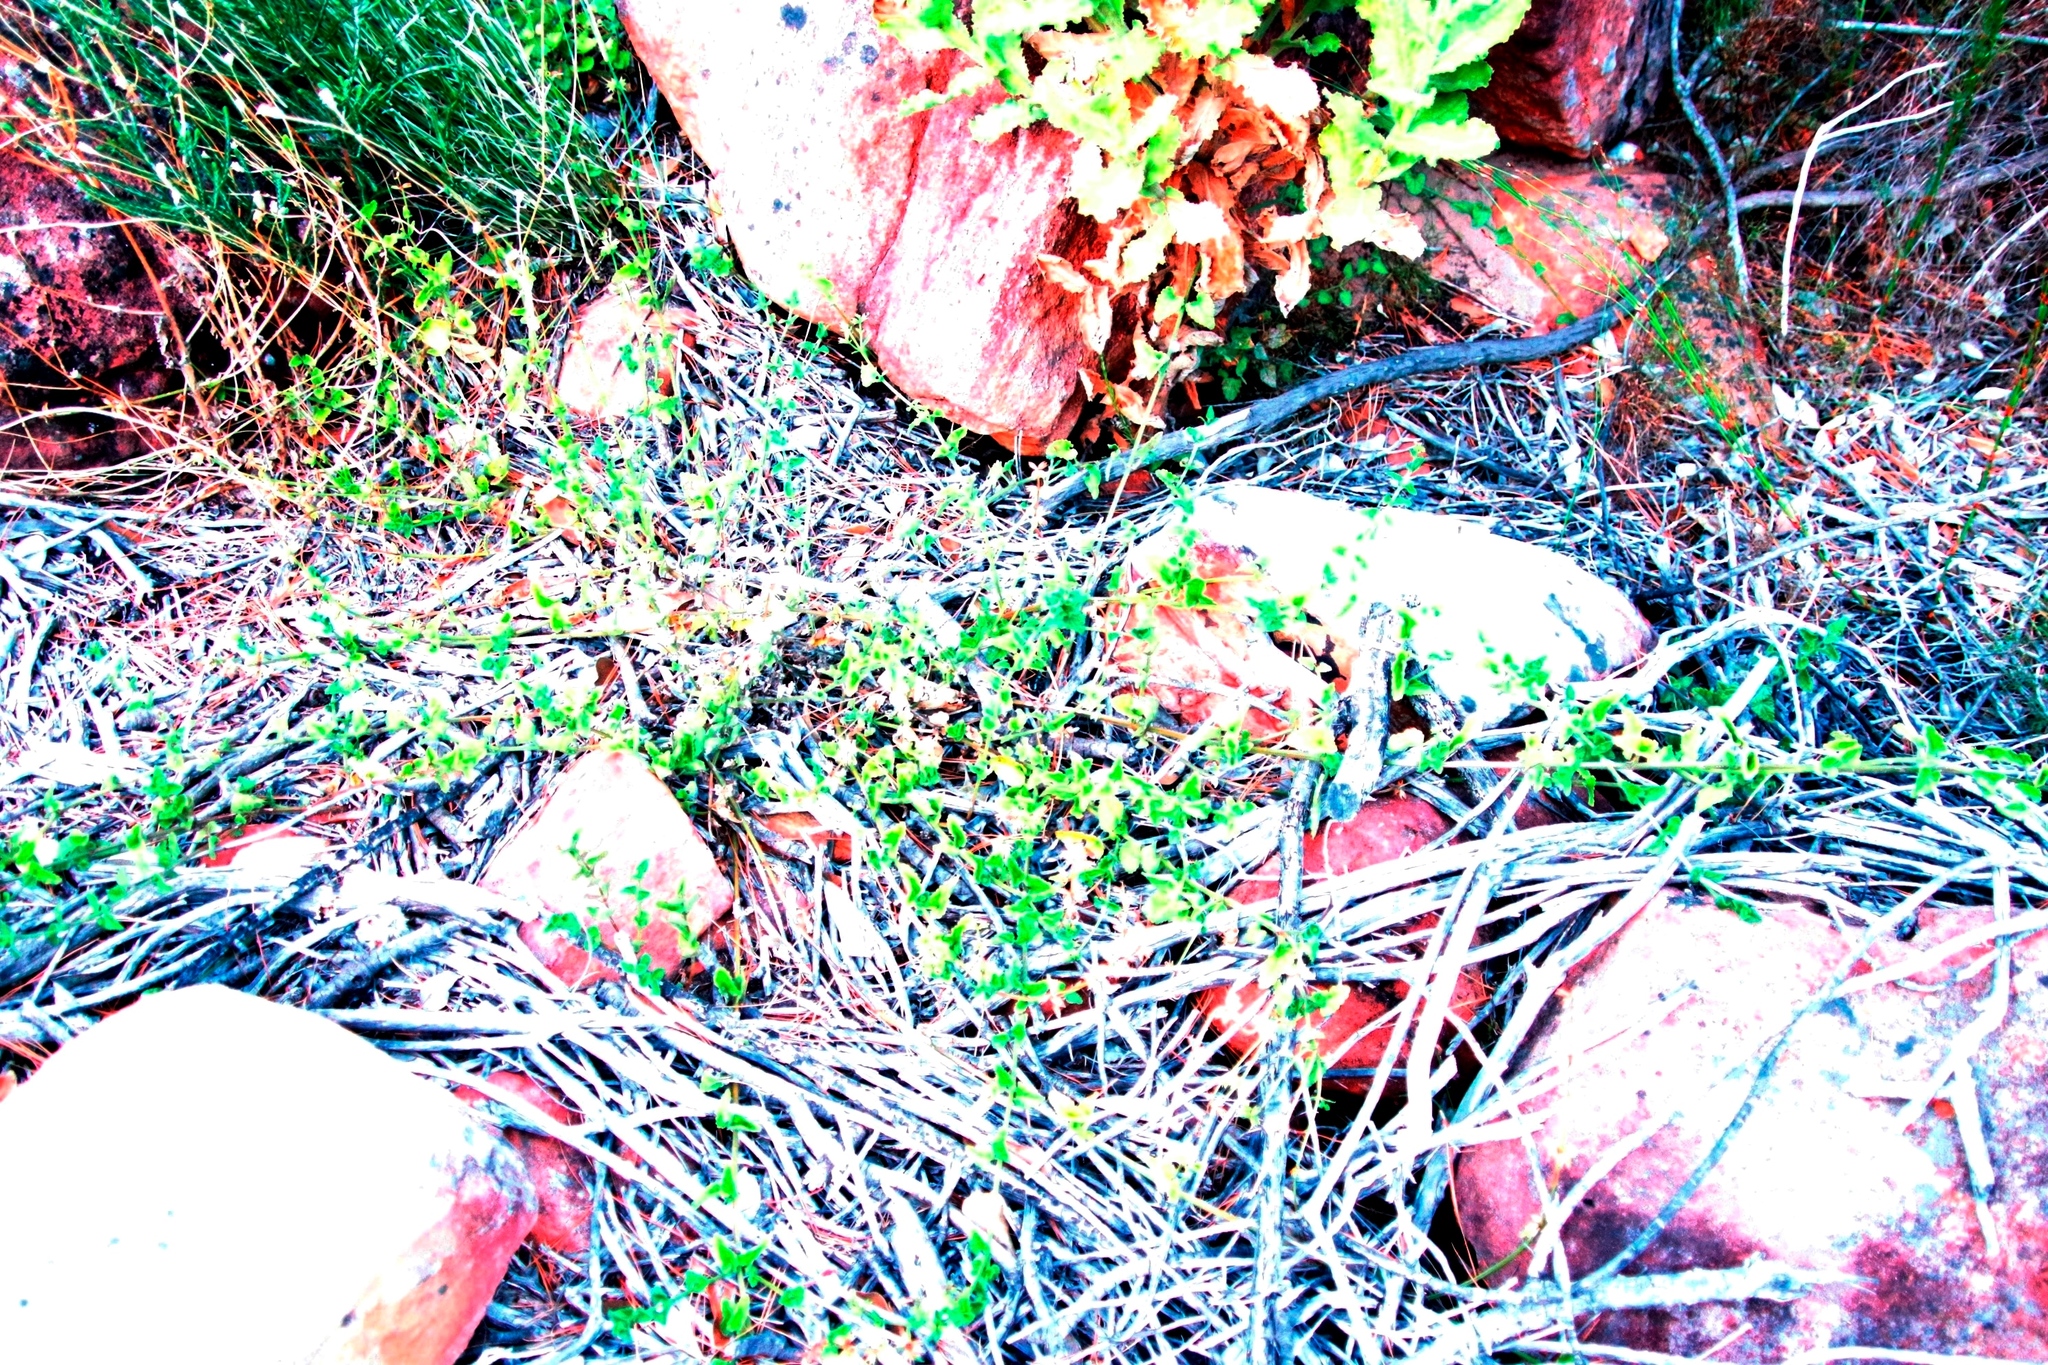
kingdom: Plantae
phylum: Tracheophyta
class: Magnoliopsida
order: Lamiales
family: Lamiaceae
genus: Stachys
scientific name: Stachys aethiopica
